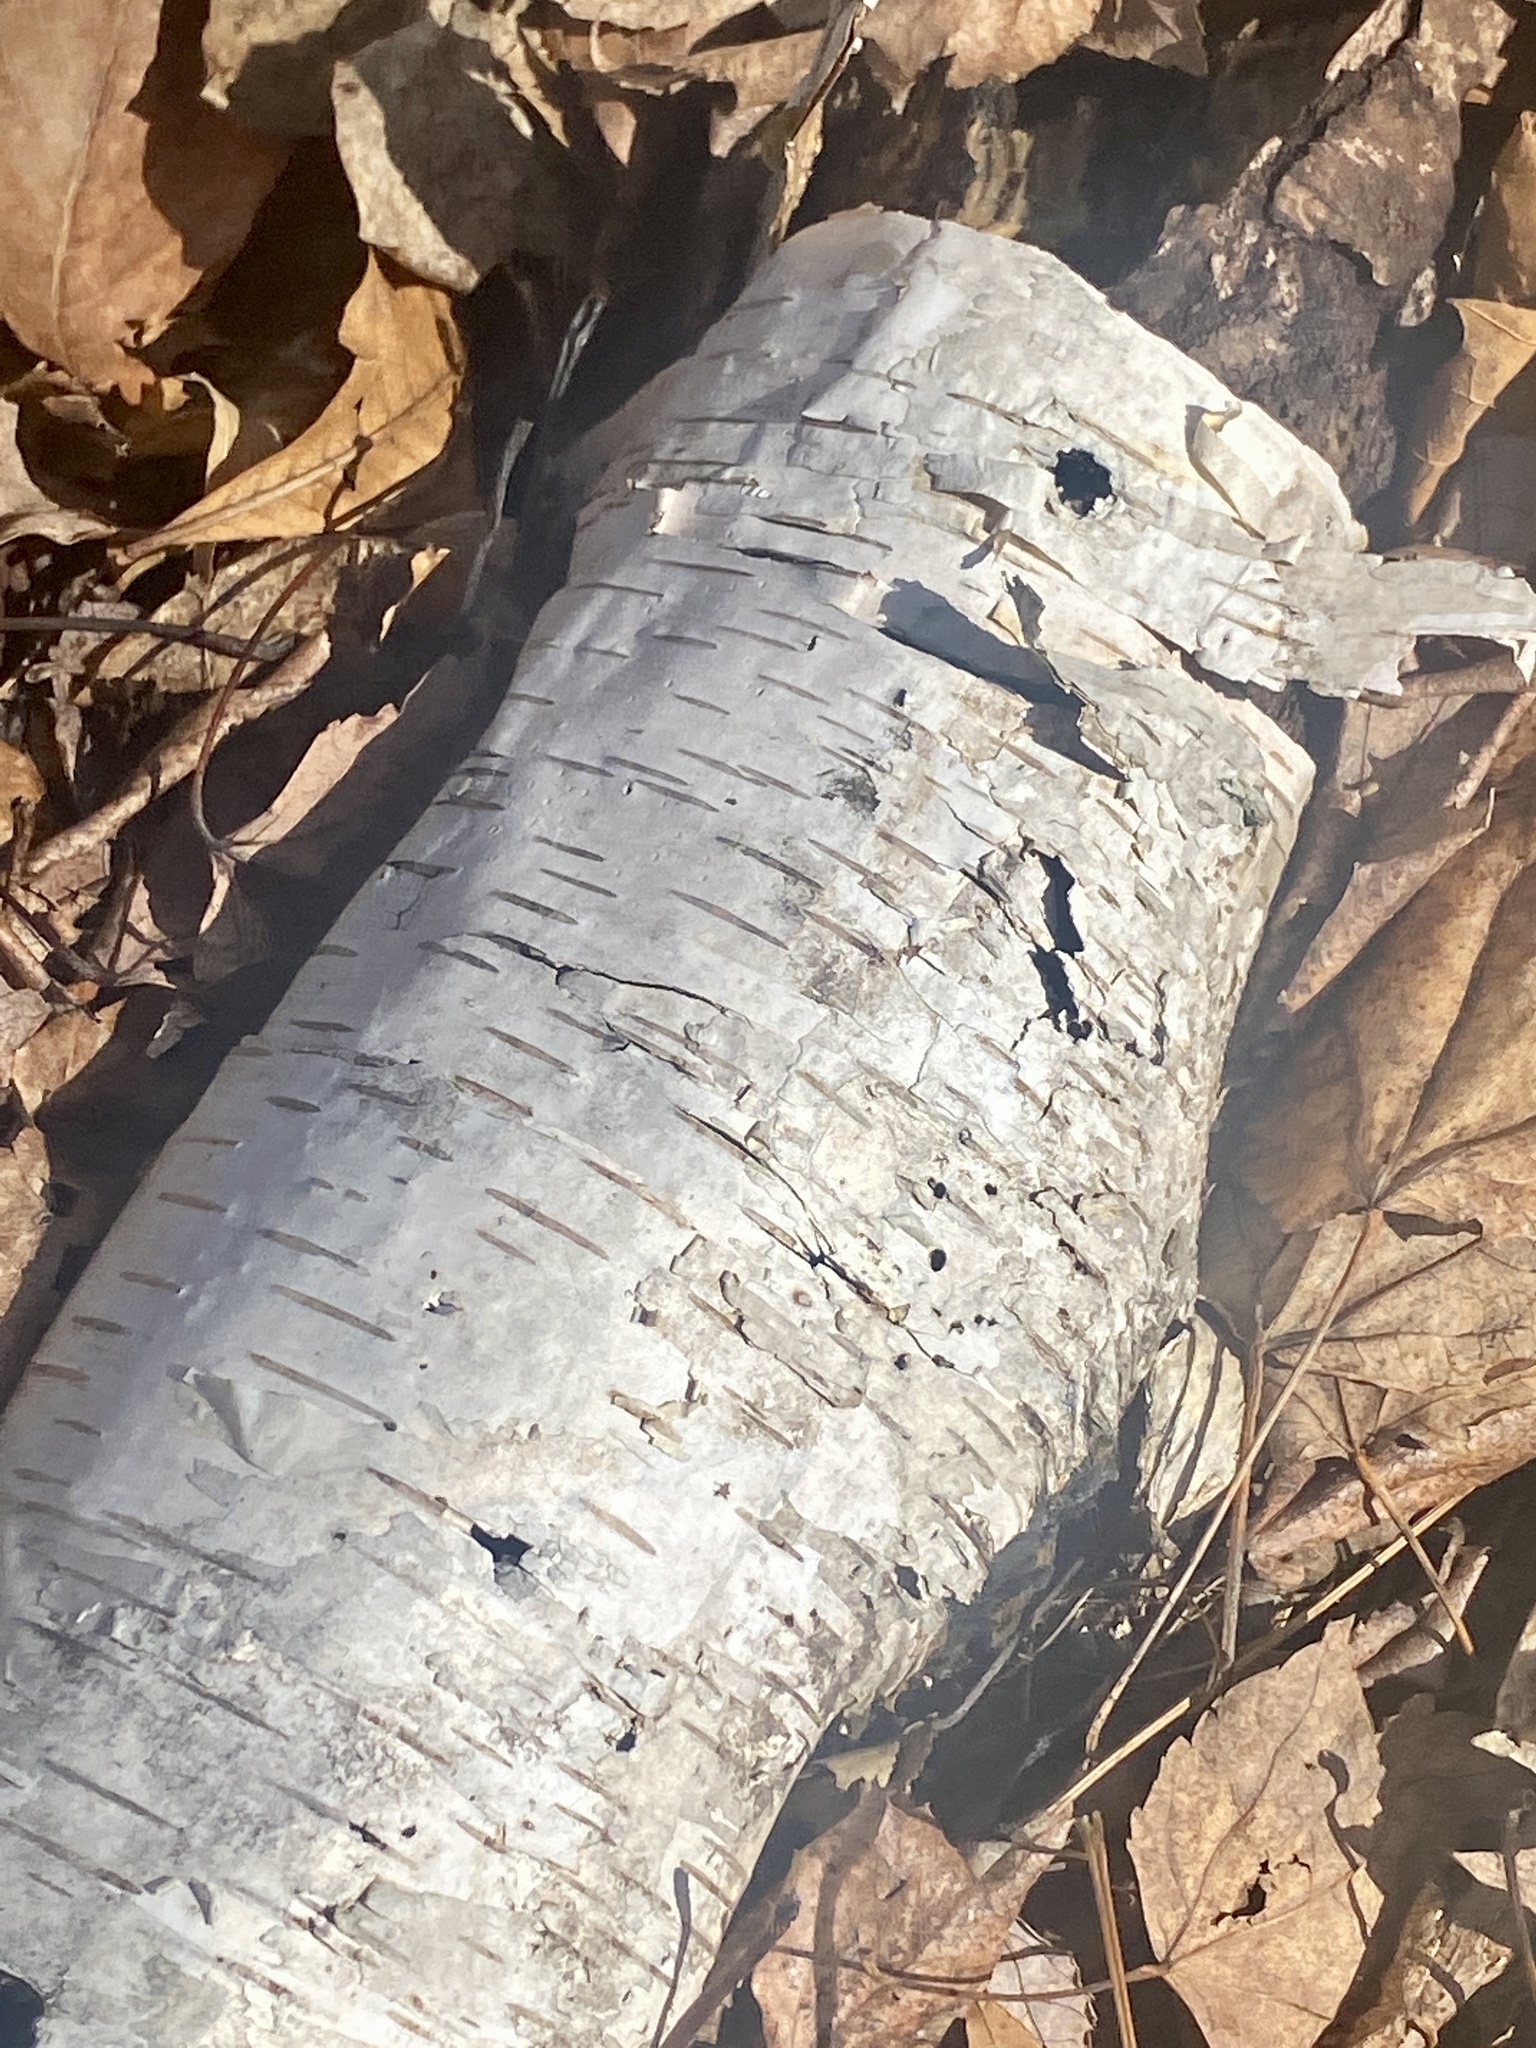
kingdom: Plantae
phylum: Tracheophyta
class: Magnoliopsida
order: Fagales
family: Betulaceae
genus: Betula
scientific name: Betula papyrifera
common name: Paper birch
